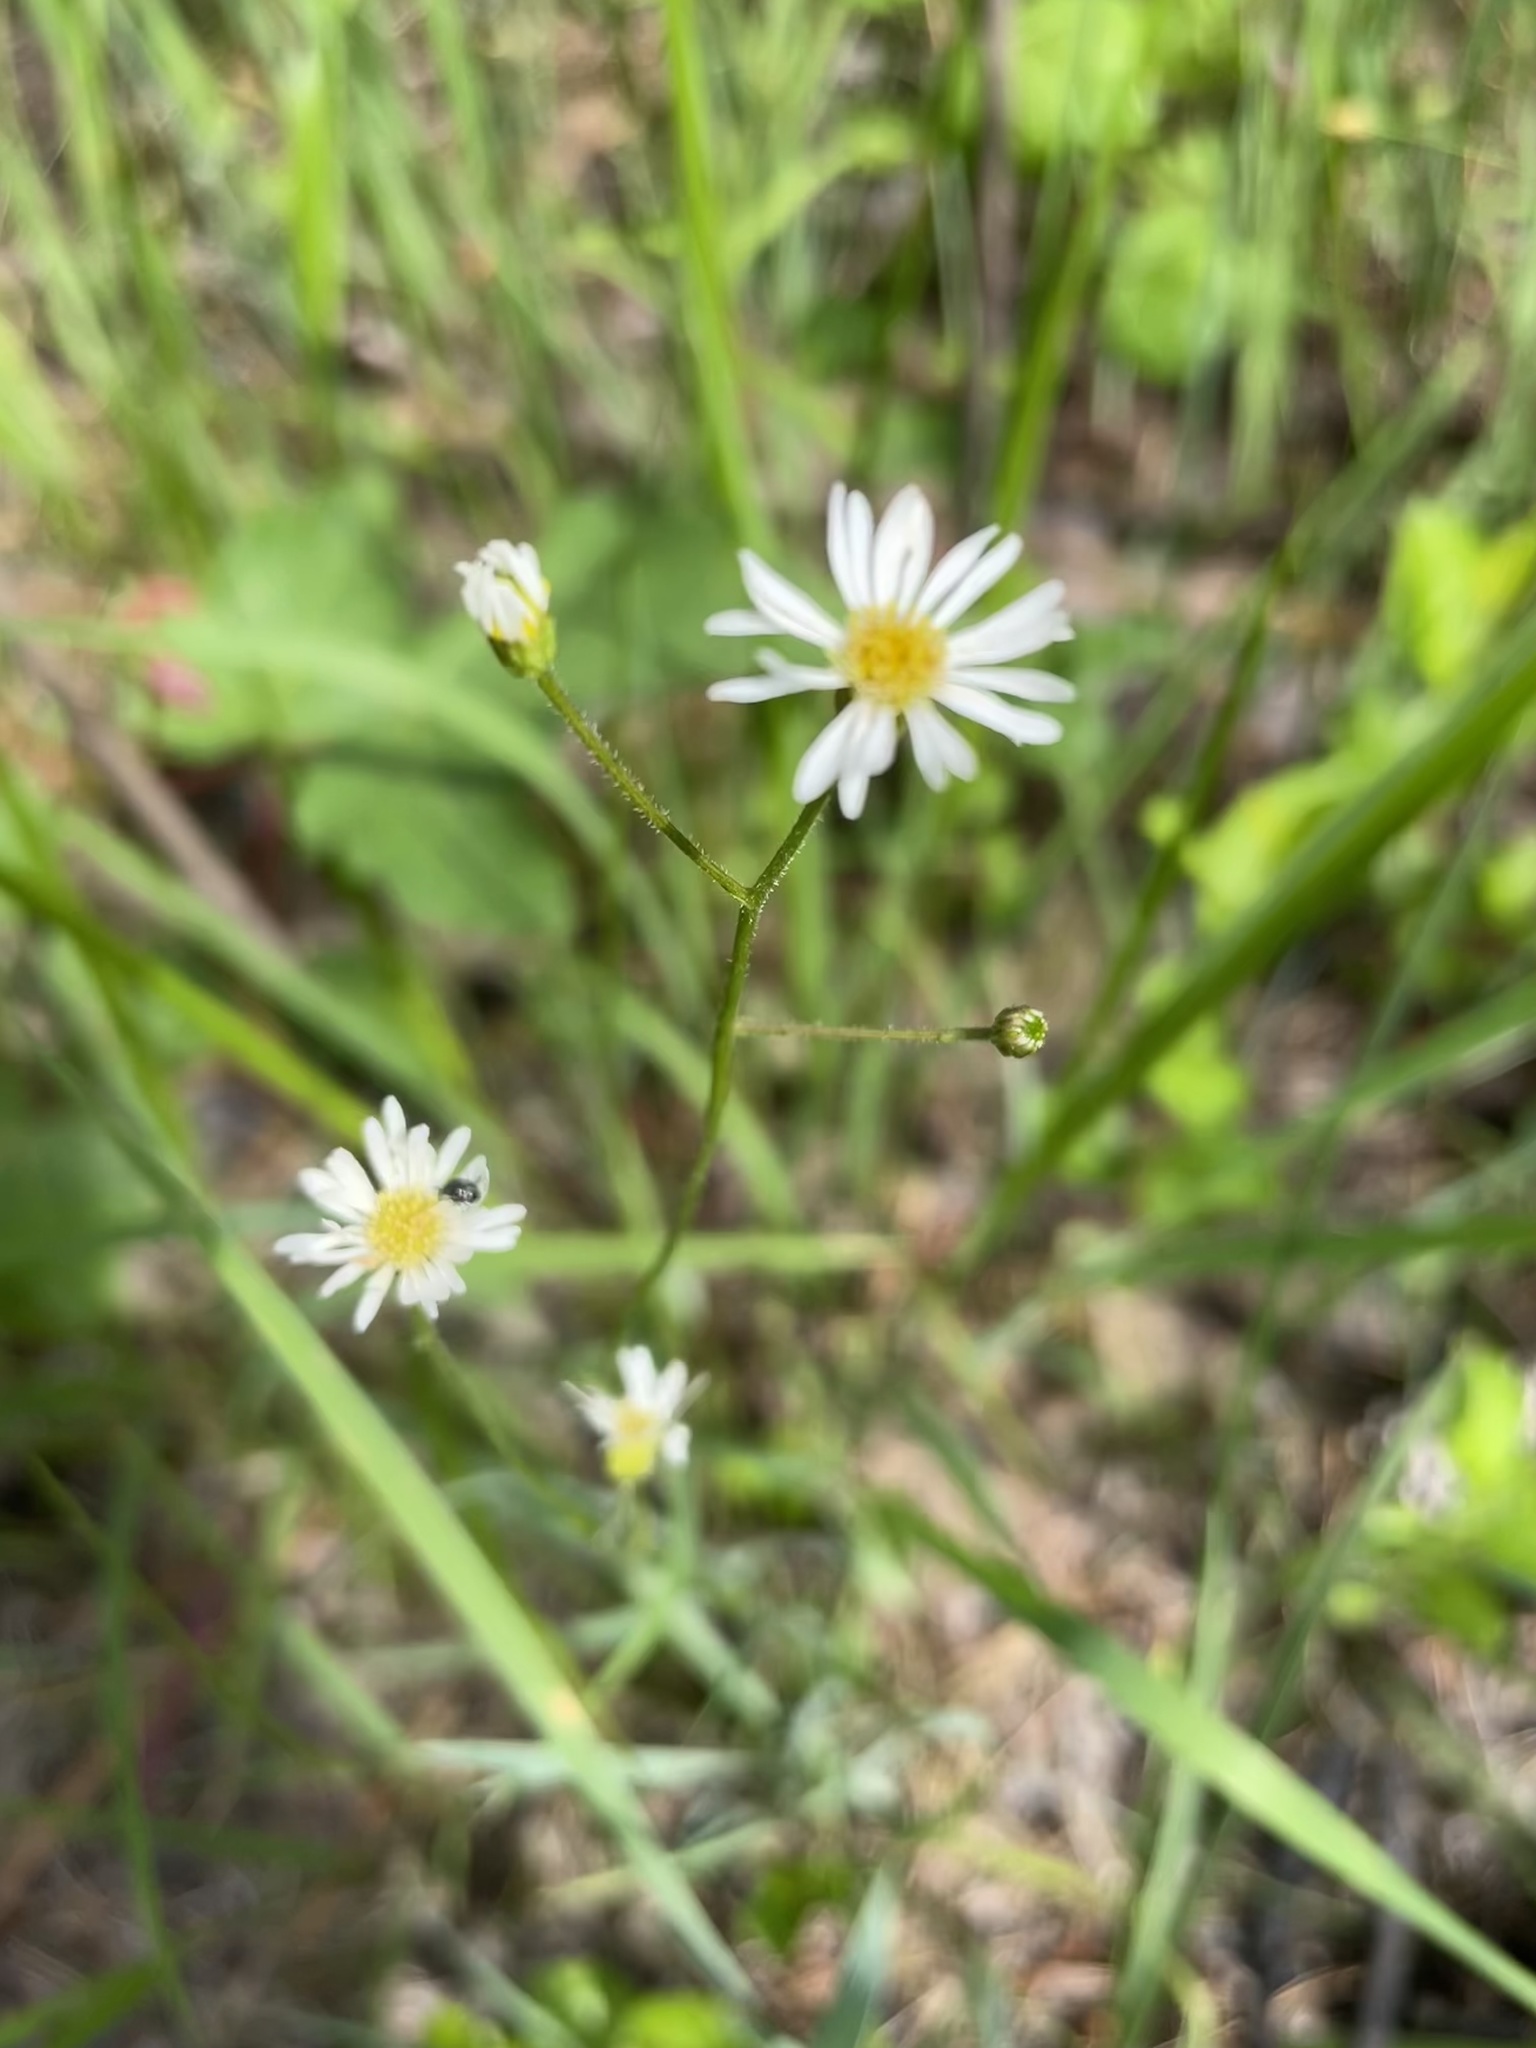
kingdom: Plantae
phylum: Tracheophyta
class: Magnoliopsida
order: Asterales
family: Asteraceae
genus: Erigeron
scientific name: Erigeron vernus
